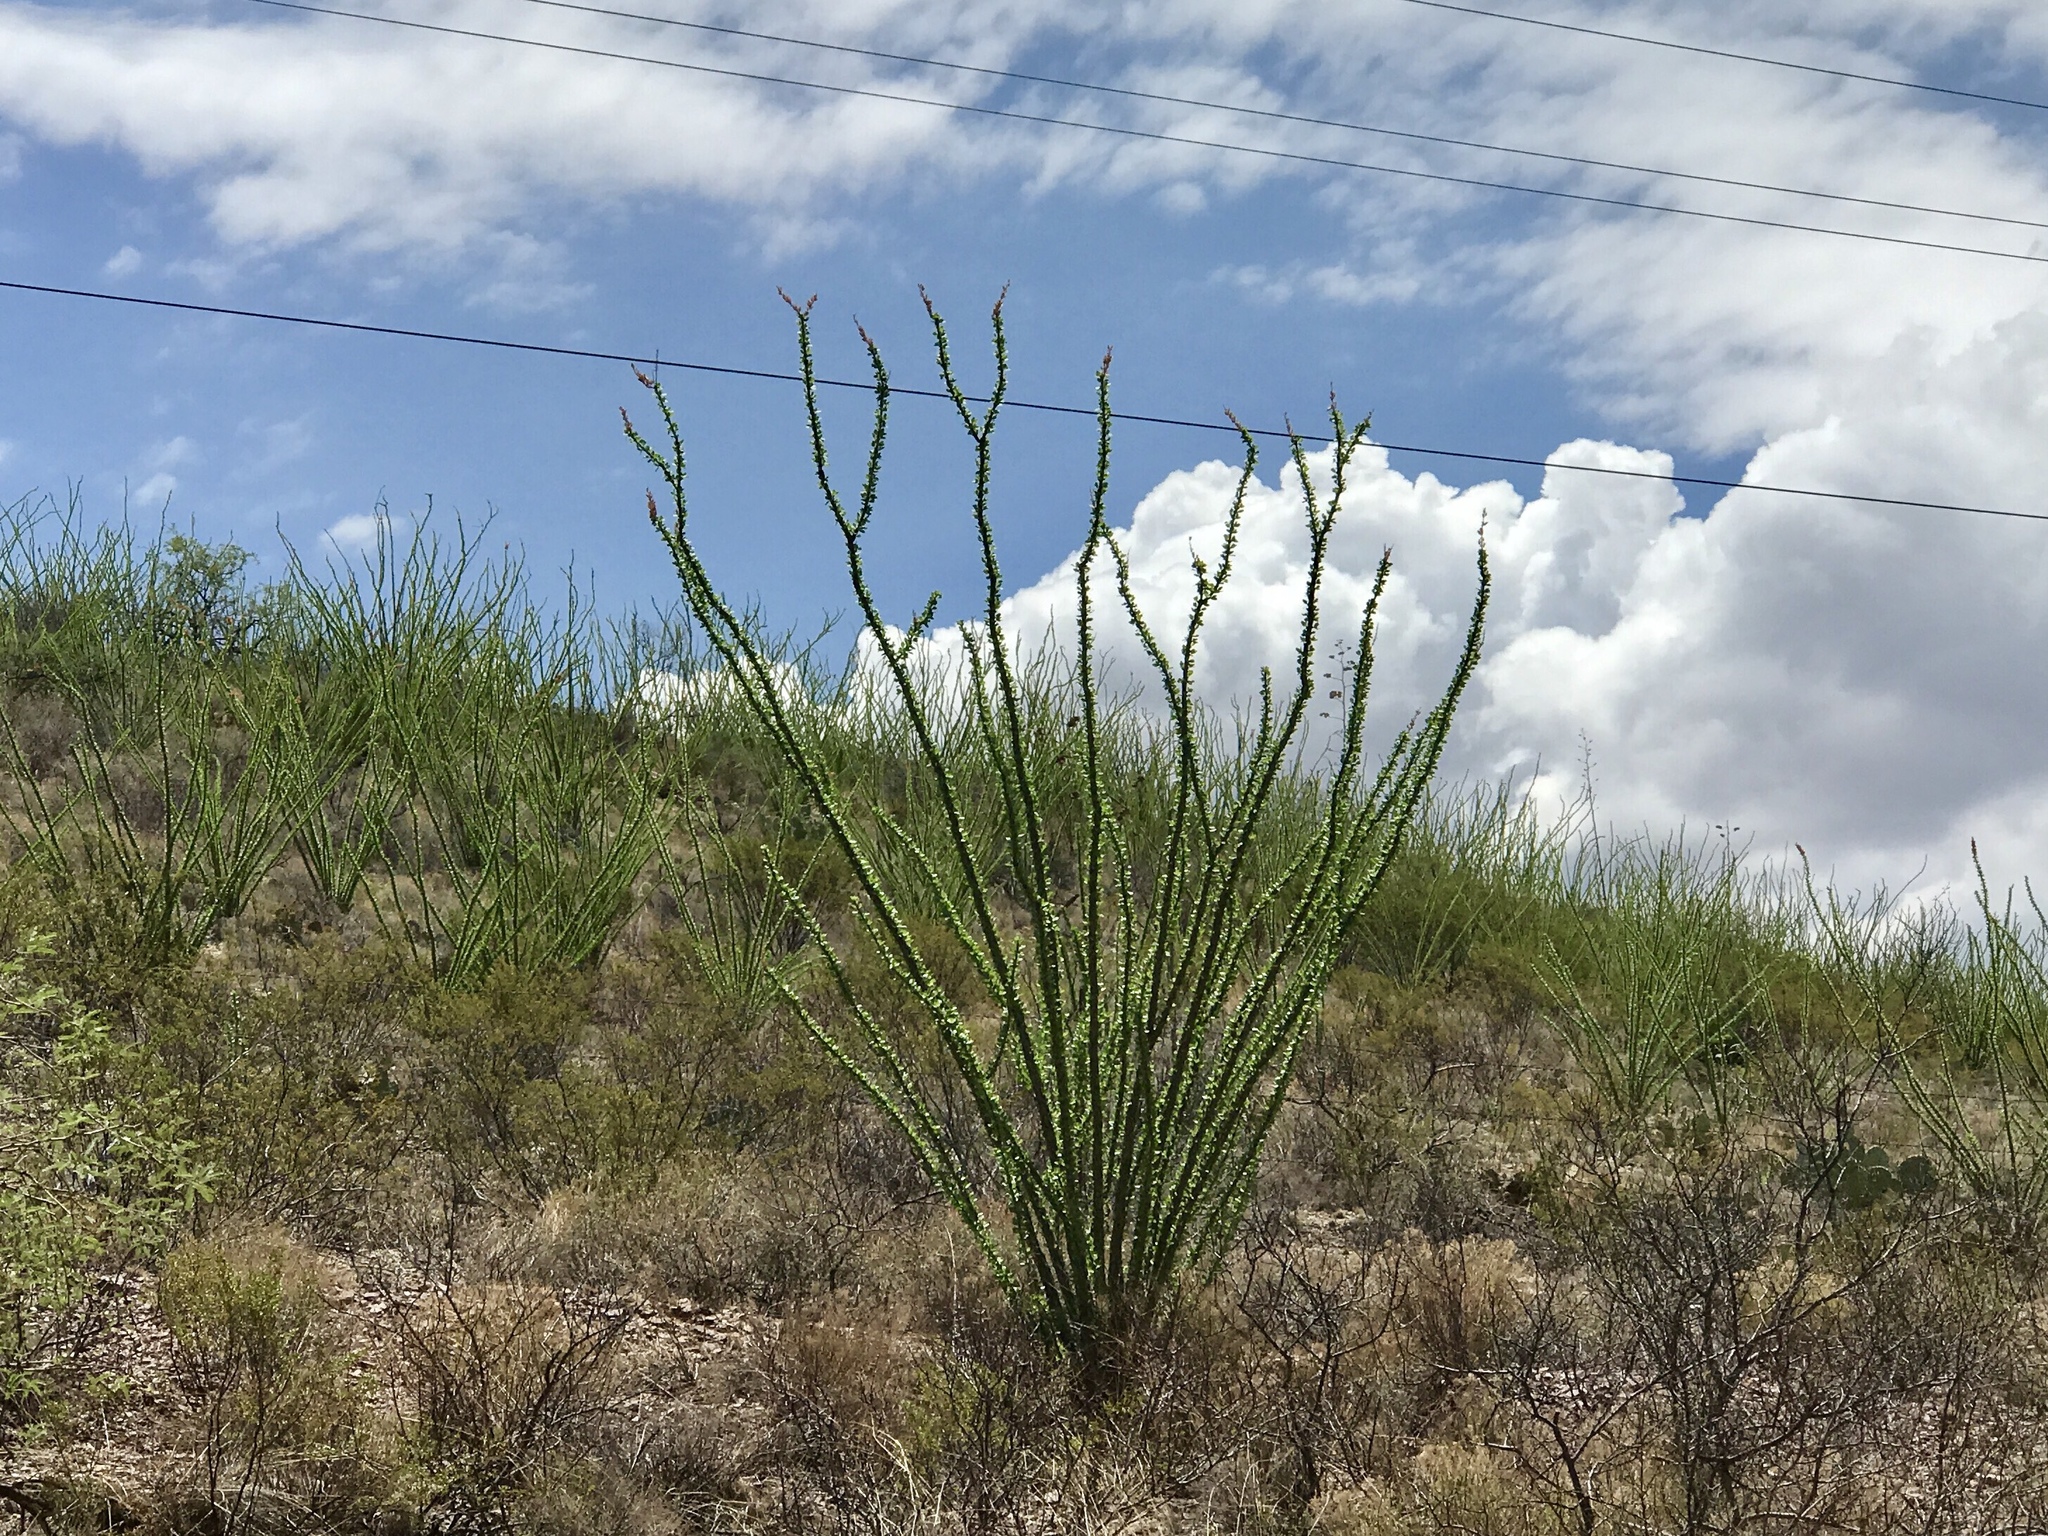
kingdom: Plantae
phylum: Tracheophyta
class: Magnoliopsida
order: Ericales
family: Fouquieriaceae
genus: Fouquieria
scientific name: Fouquieria splendens
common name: Vine-cactus
